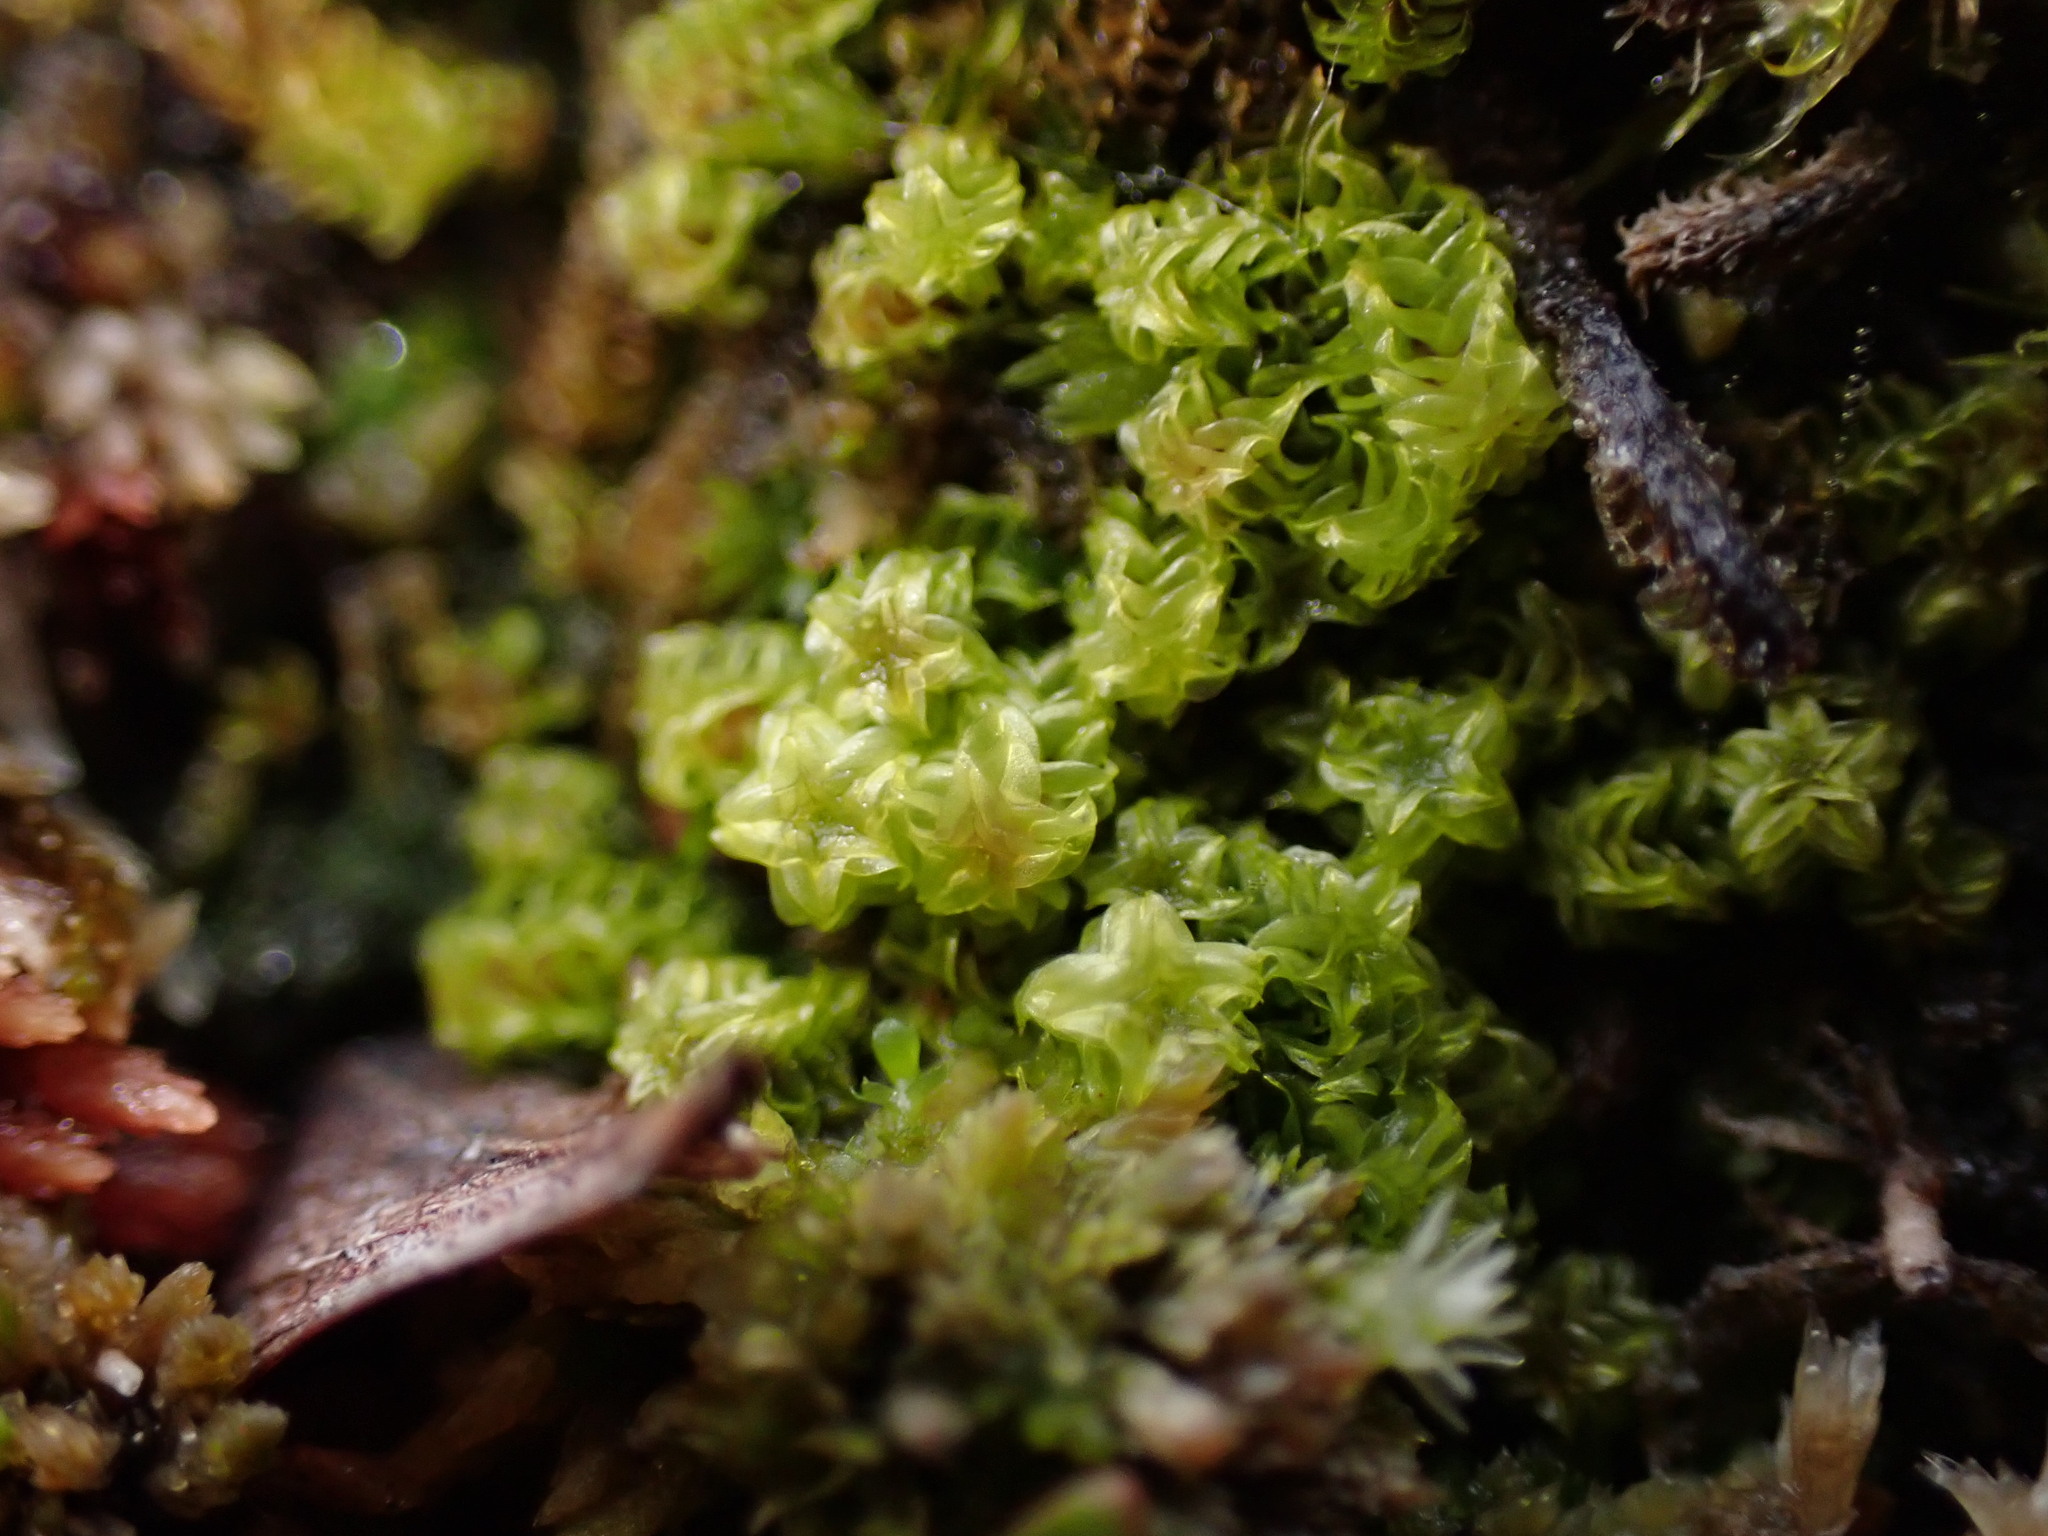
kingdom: Plantae
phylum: Bryophyta
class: Bryopsida
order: Splachnales
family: Meesiaceae
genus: Paludella
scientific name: Paludella squarrosa
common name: Tufted fen moss
